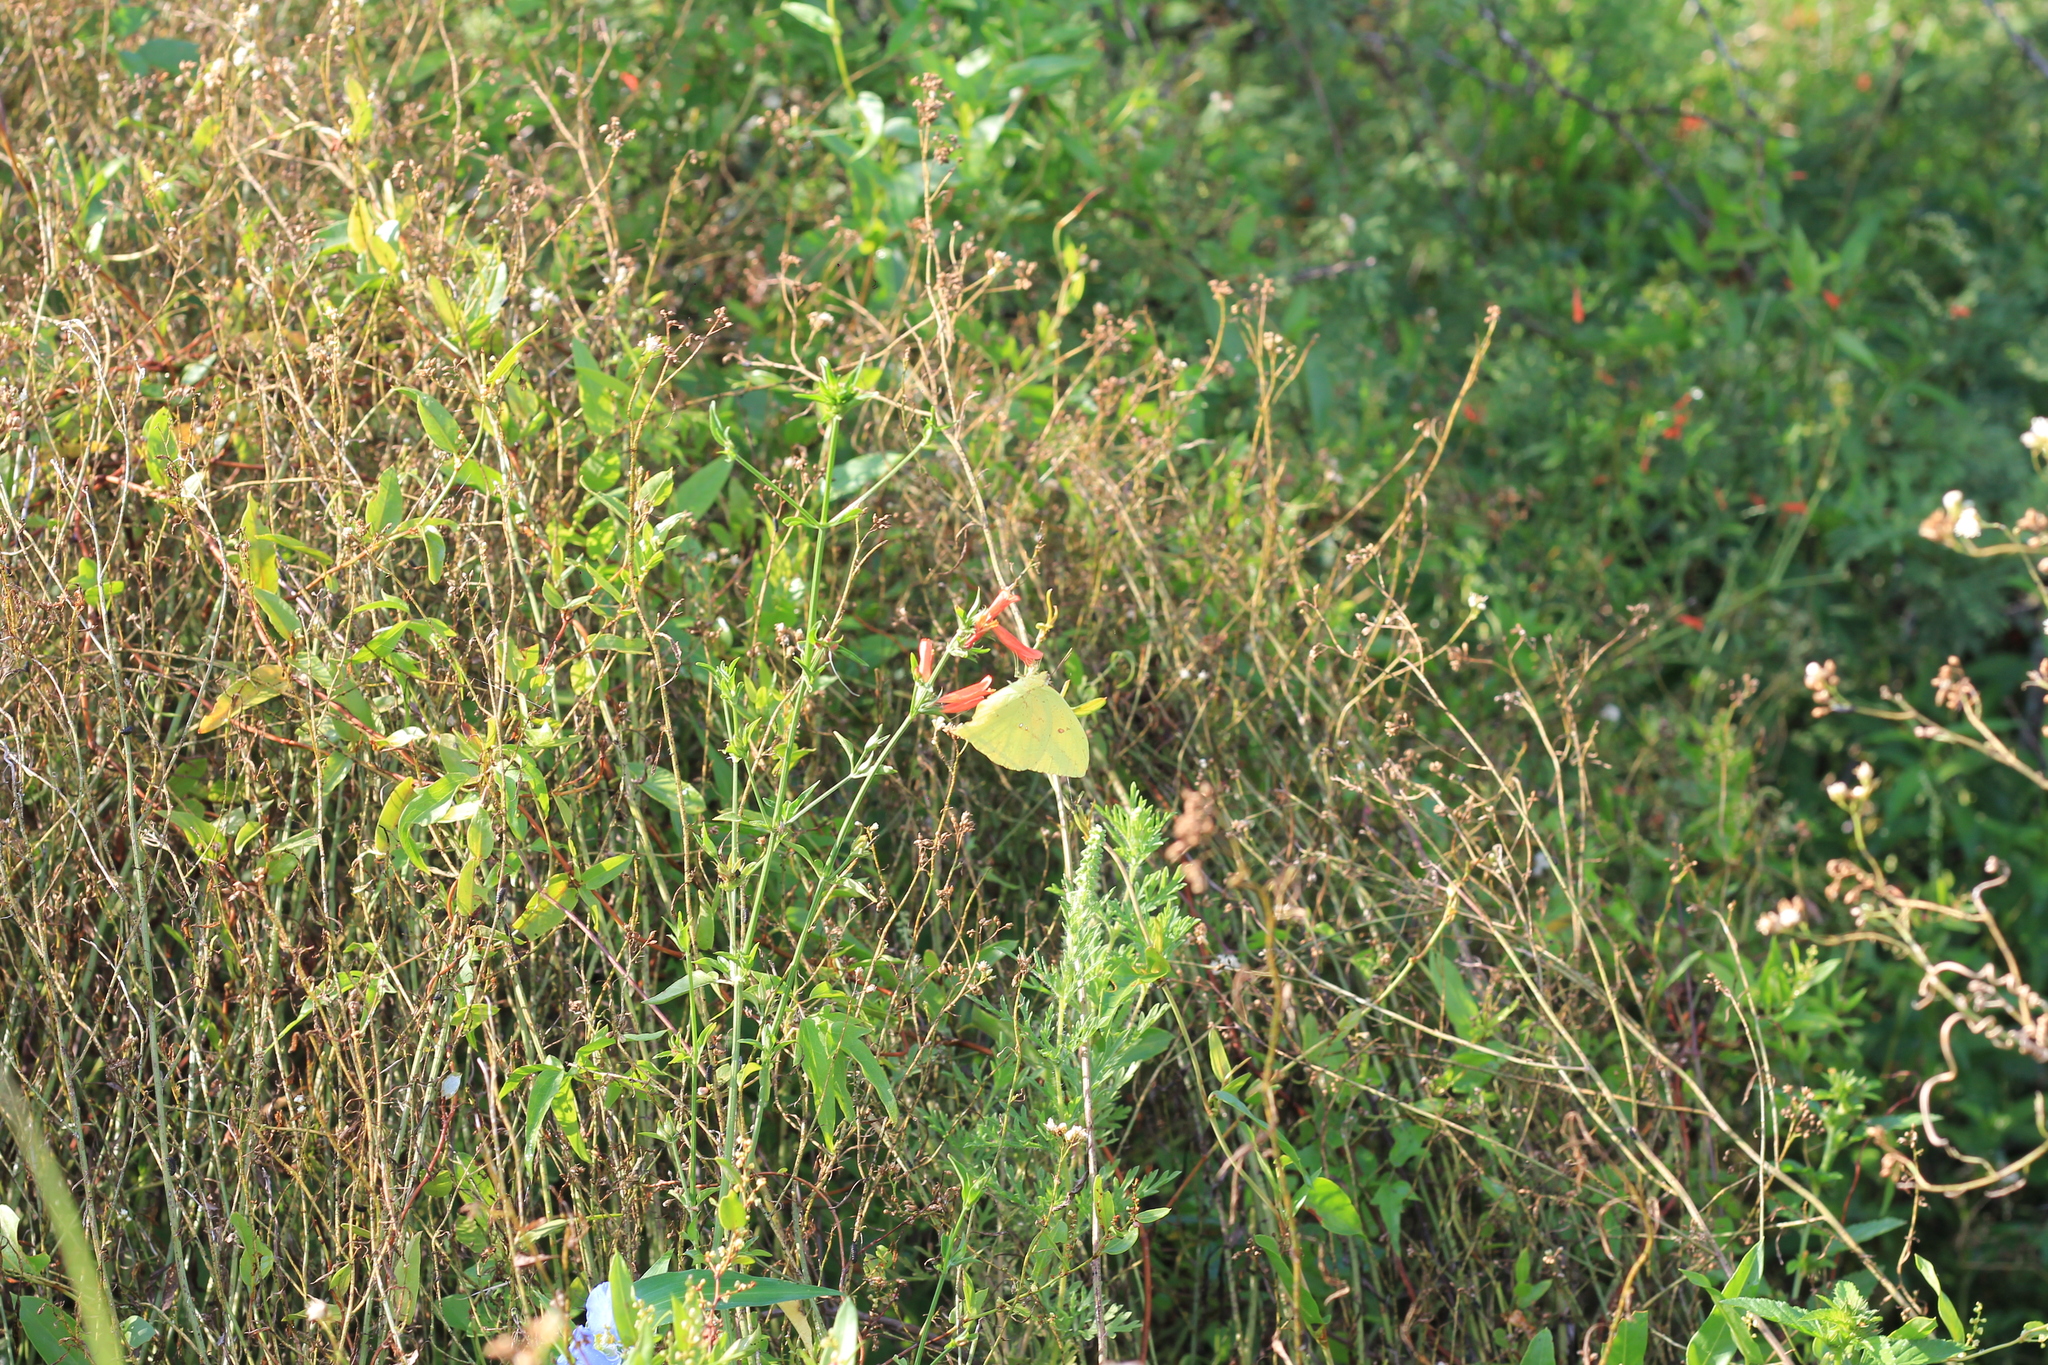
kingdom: Animalia
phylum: Arthropoda
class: Insecta
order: Lepidoptera
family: Pieridae
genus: Phoebis
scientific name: Phoebis neocypris
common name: Tailed sulphur
